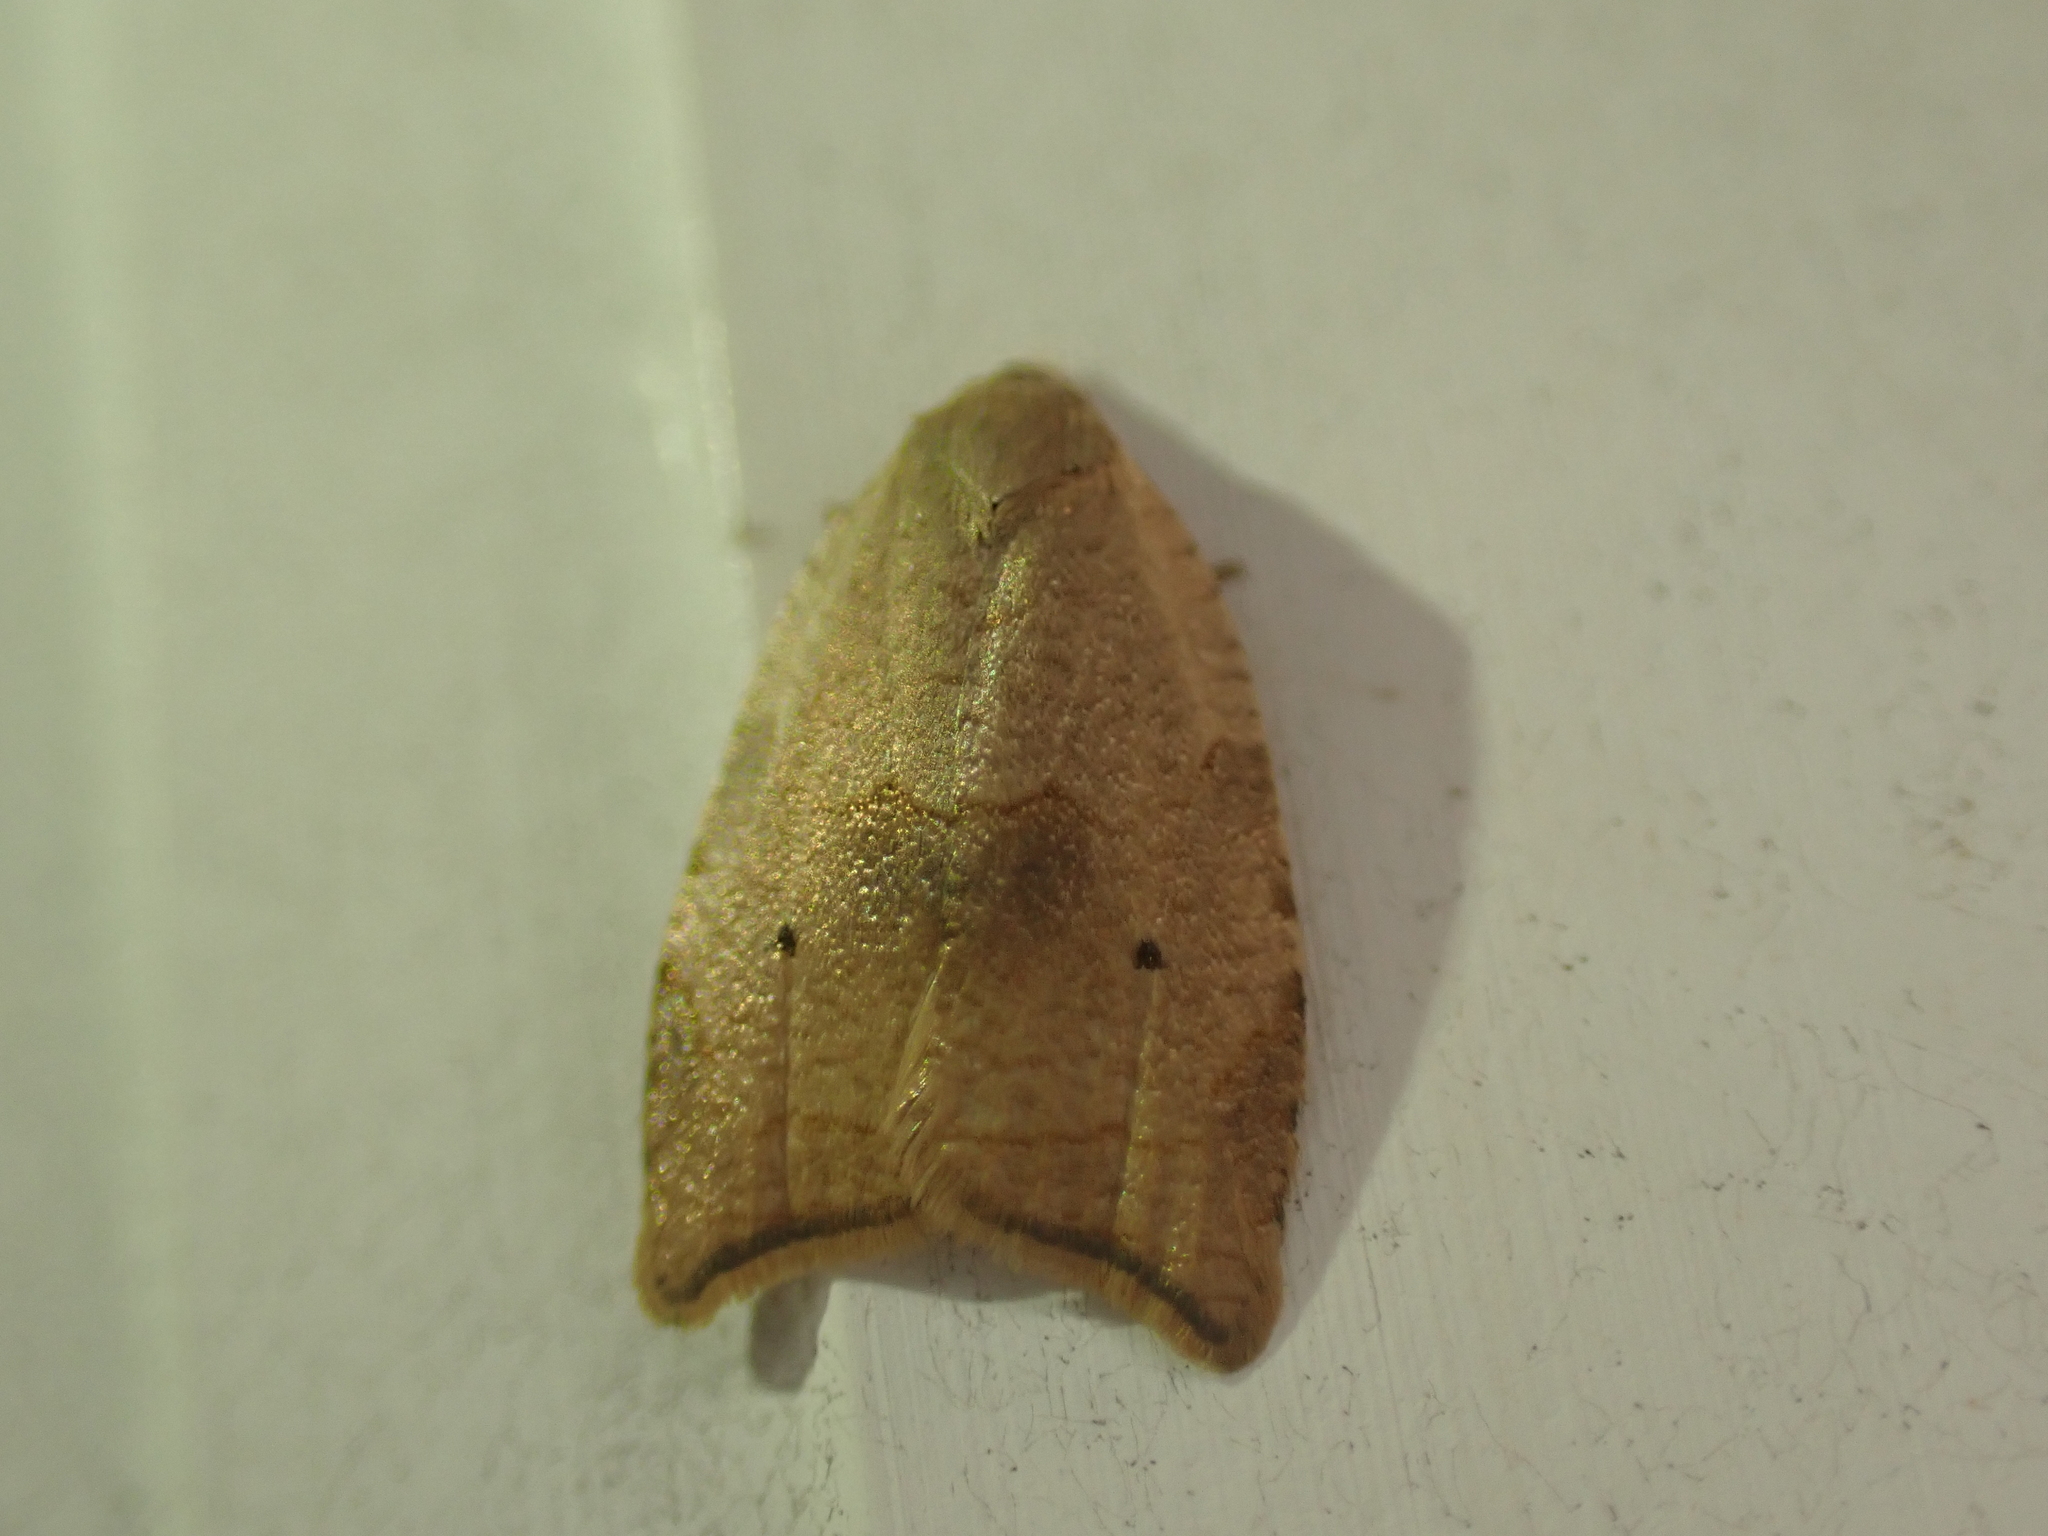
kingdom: Animalia
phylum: Arthropoda
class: Insecta
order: Lepidoptera
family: Tortricidae
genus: Coelostathma
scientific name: Coelostathma discopunctana
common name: Batman moth
